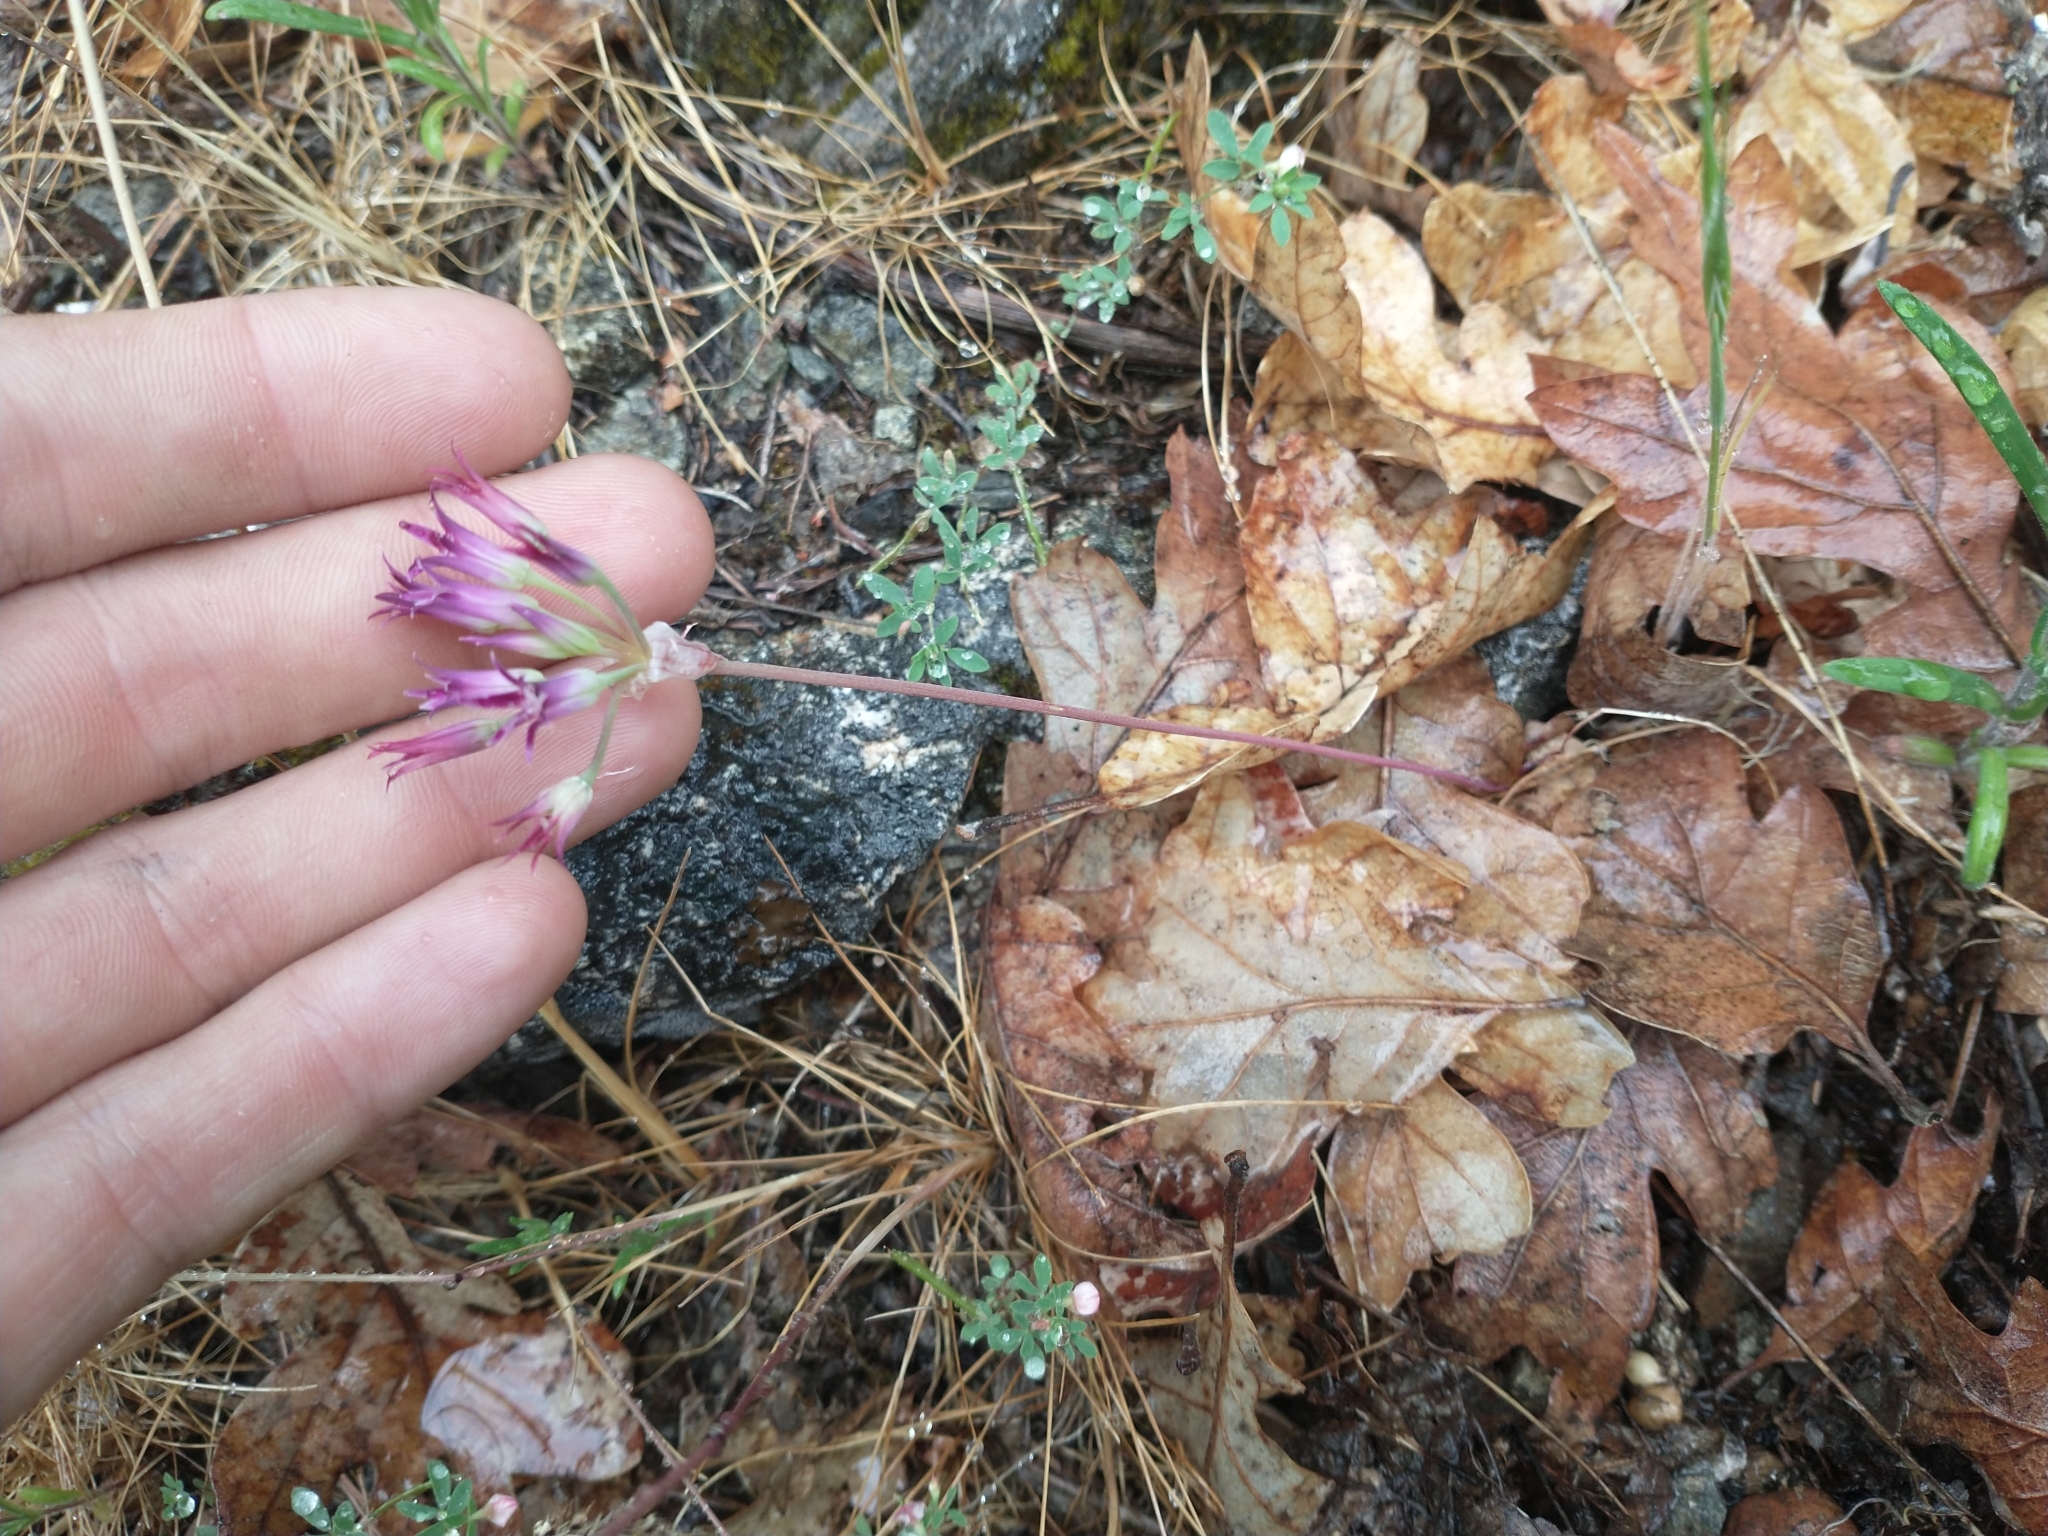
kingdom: Plantae
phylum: Tracheophyta
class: Liliopsida
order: Asparagales
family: Amaryllidaceae
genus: Allium
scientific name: Allium bolanderi
